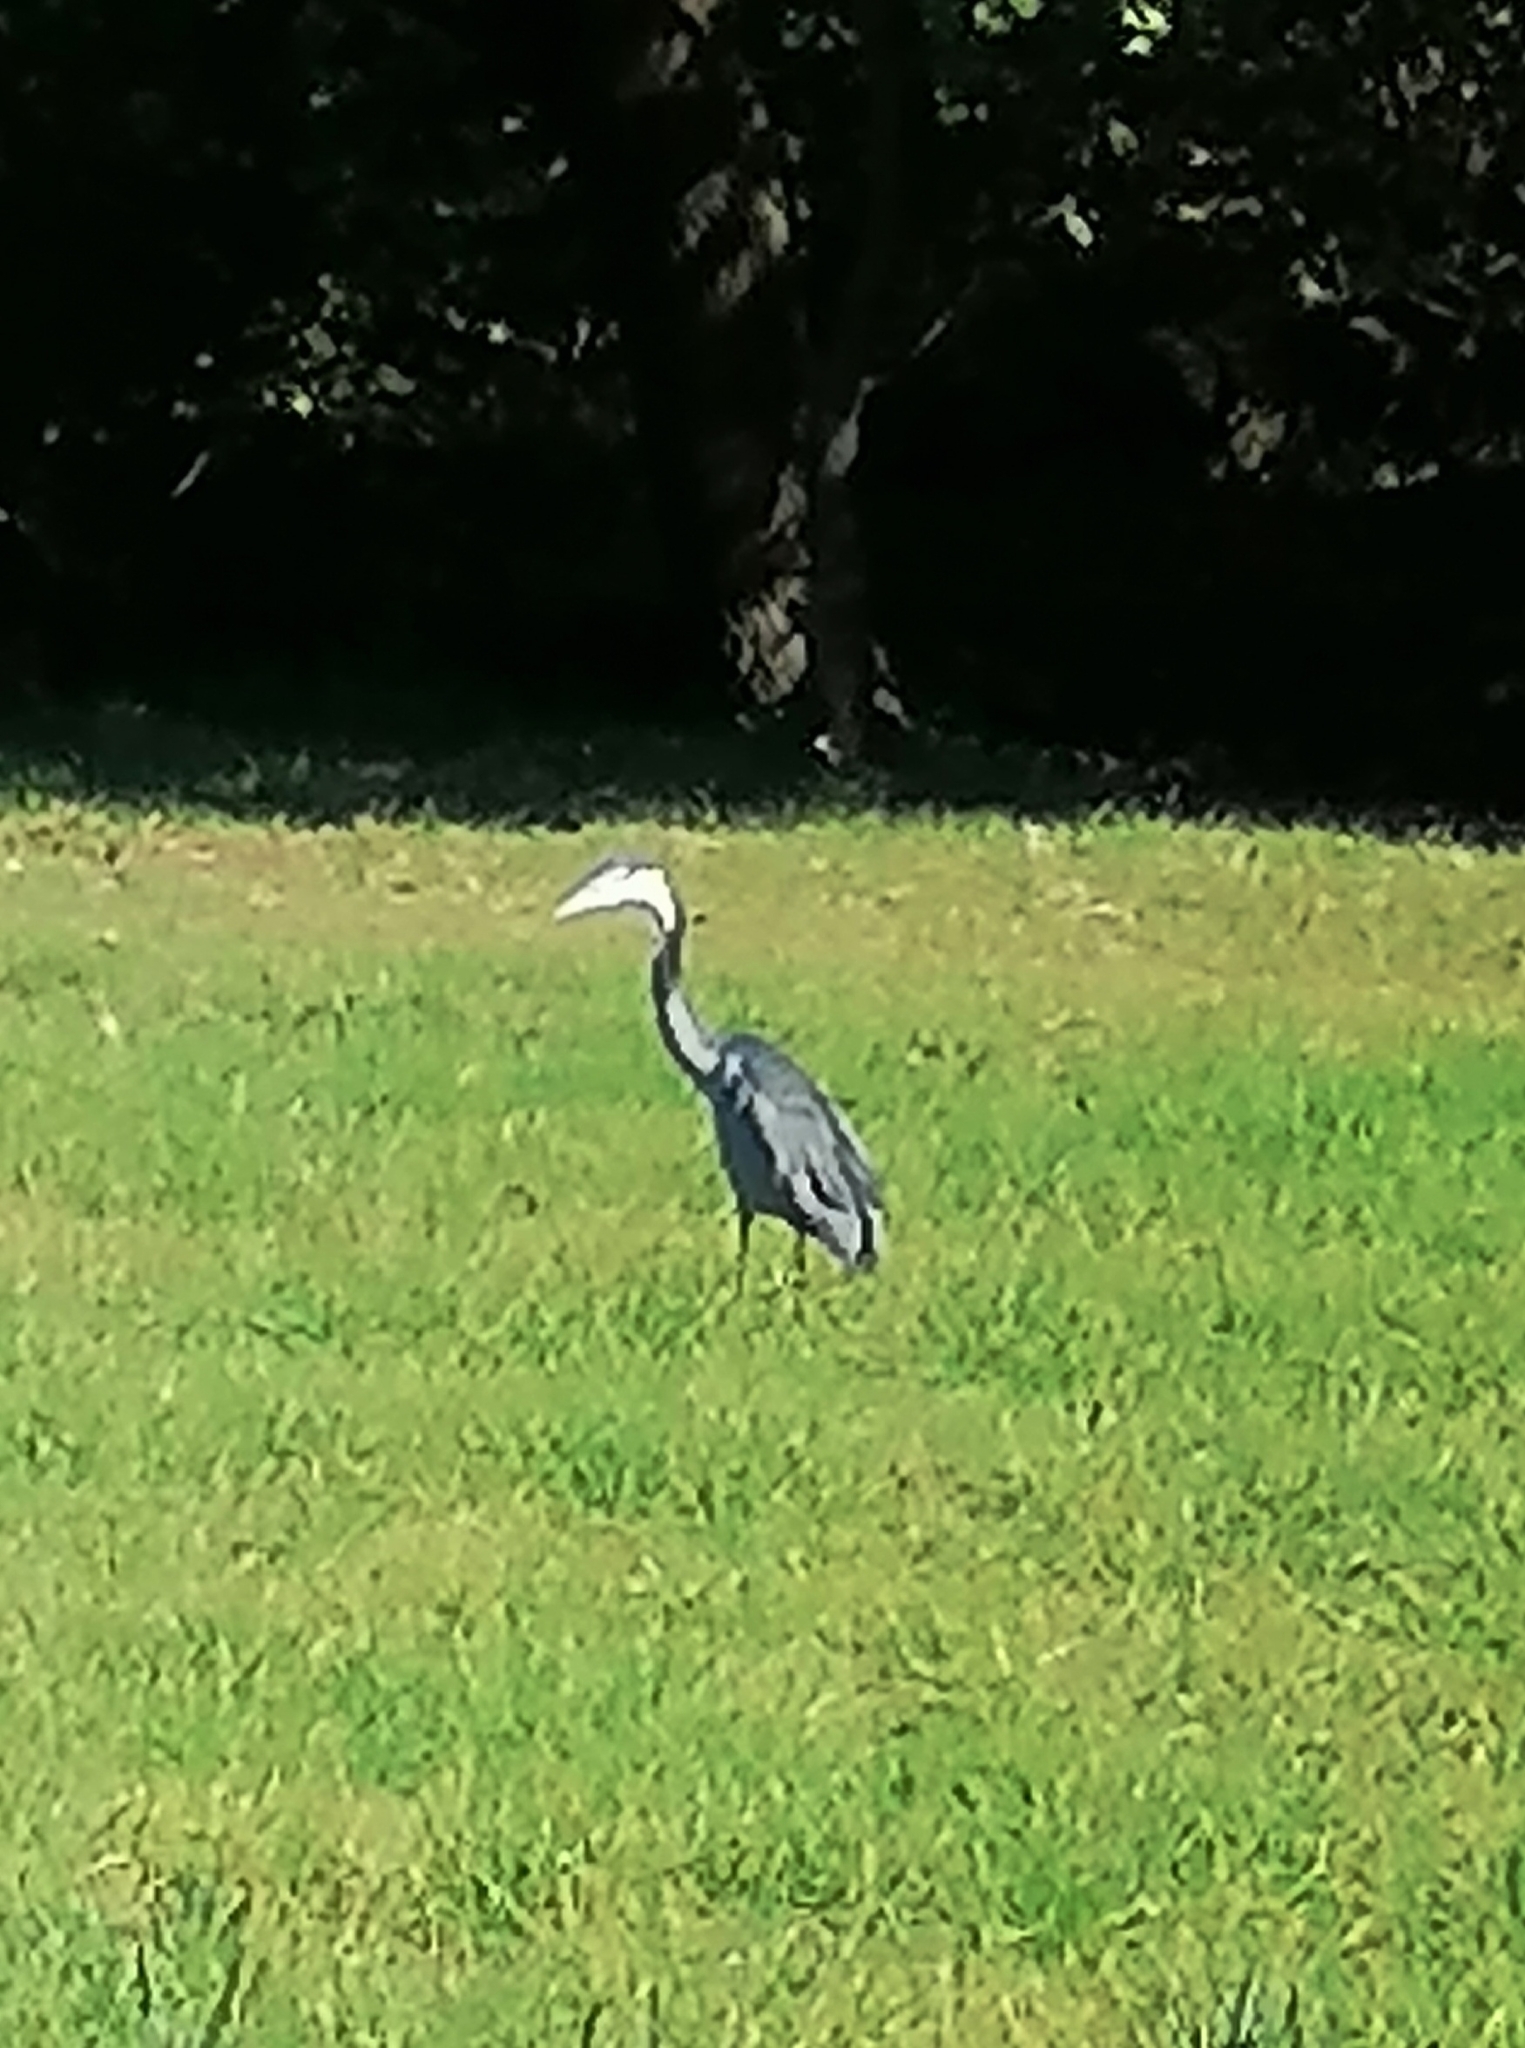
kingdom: Animalia
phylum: Chordata
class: Aves
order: Pelecaniformes
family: Ardeidae
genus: Ardea
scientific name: Ardea melanocephala
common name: Black-headed heron
